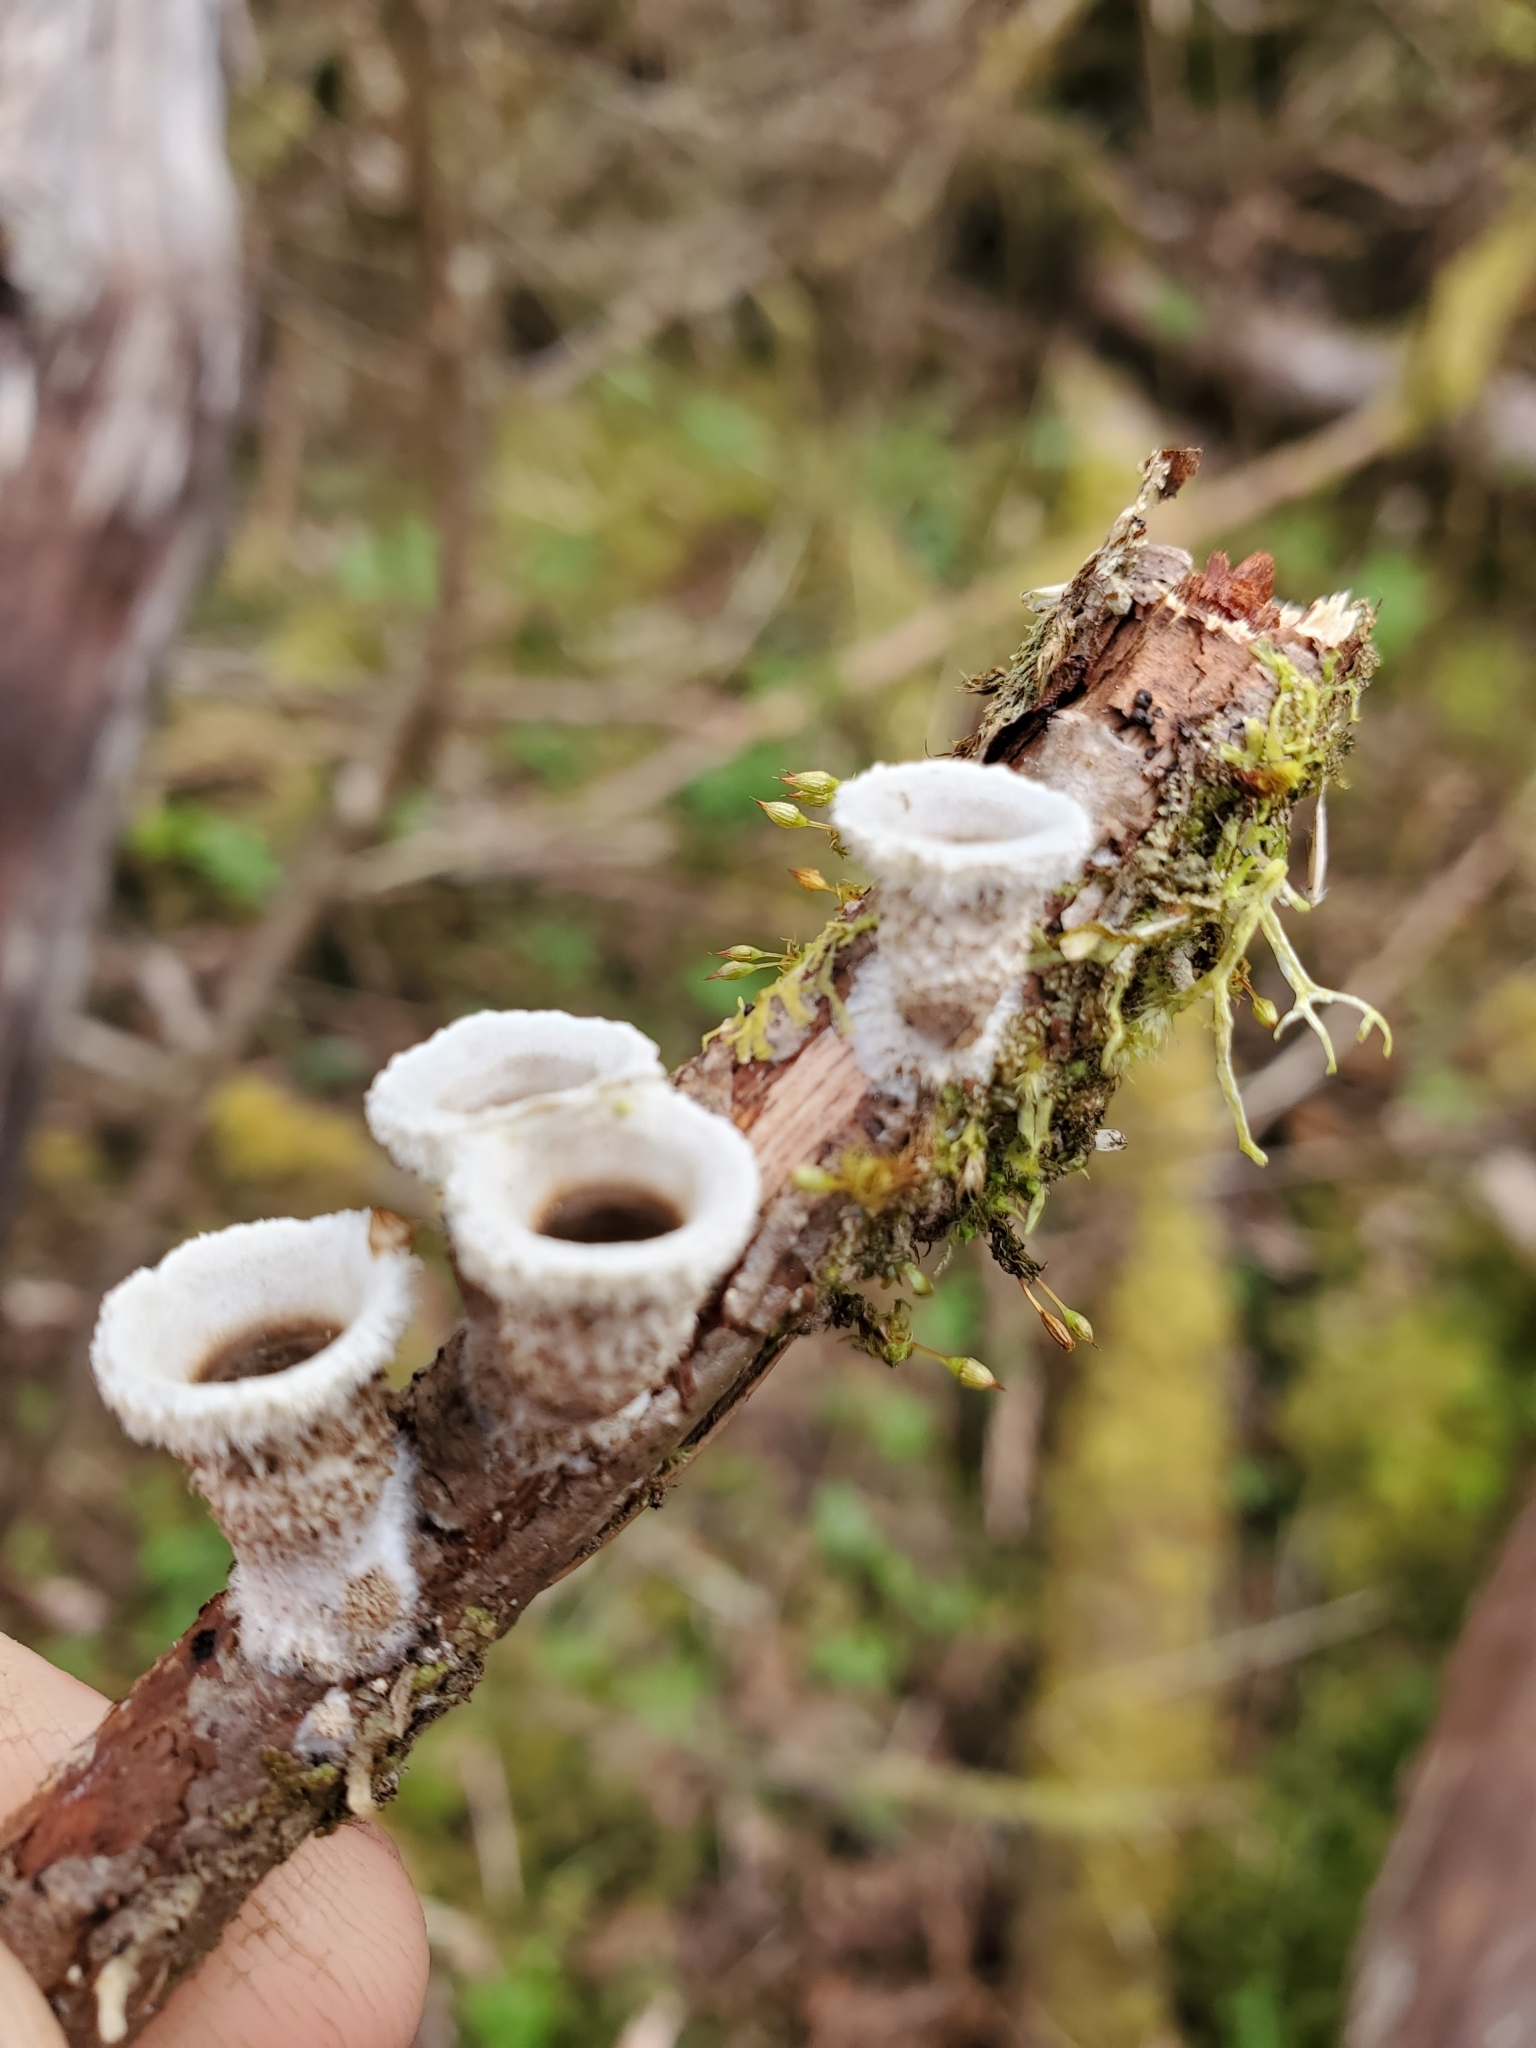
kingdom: Fungi
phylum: Basidiomycota
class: Agaricomycetes
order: Agaricales
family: Agaricaceae
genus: Nidula
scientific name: Nidula niveotomentosa
